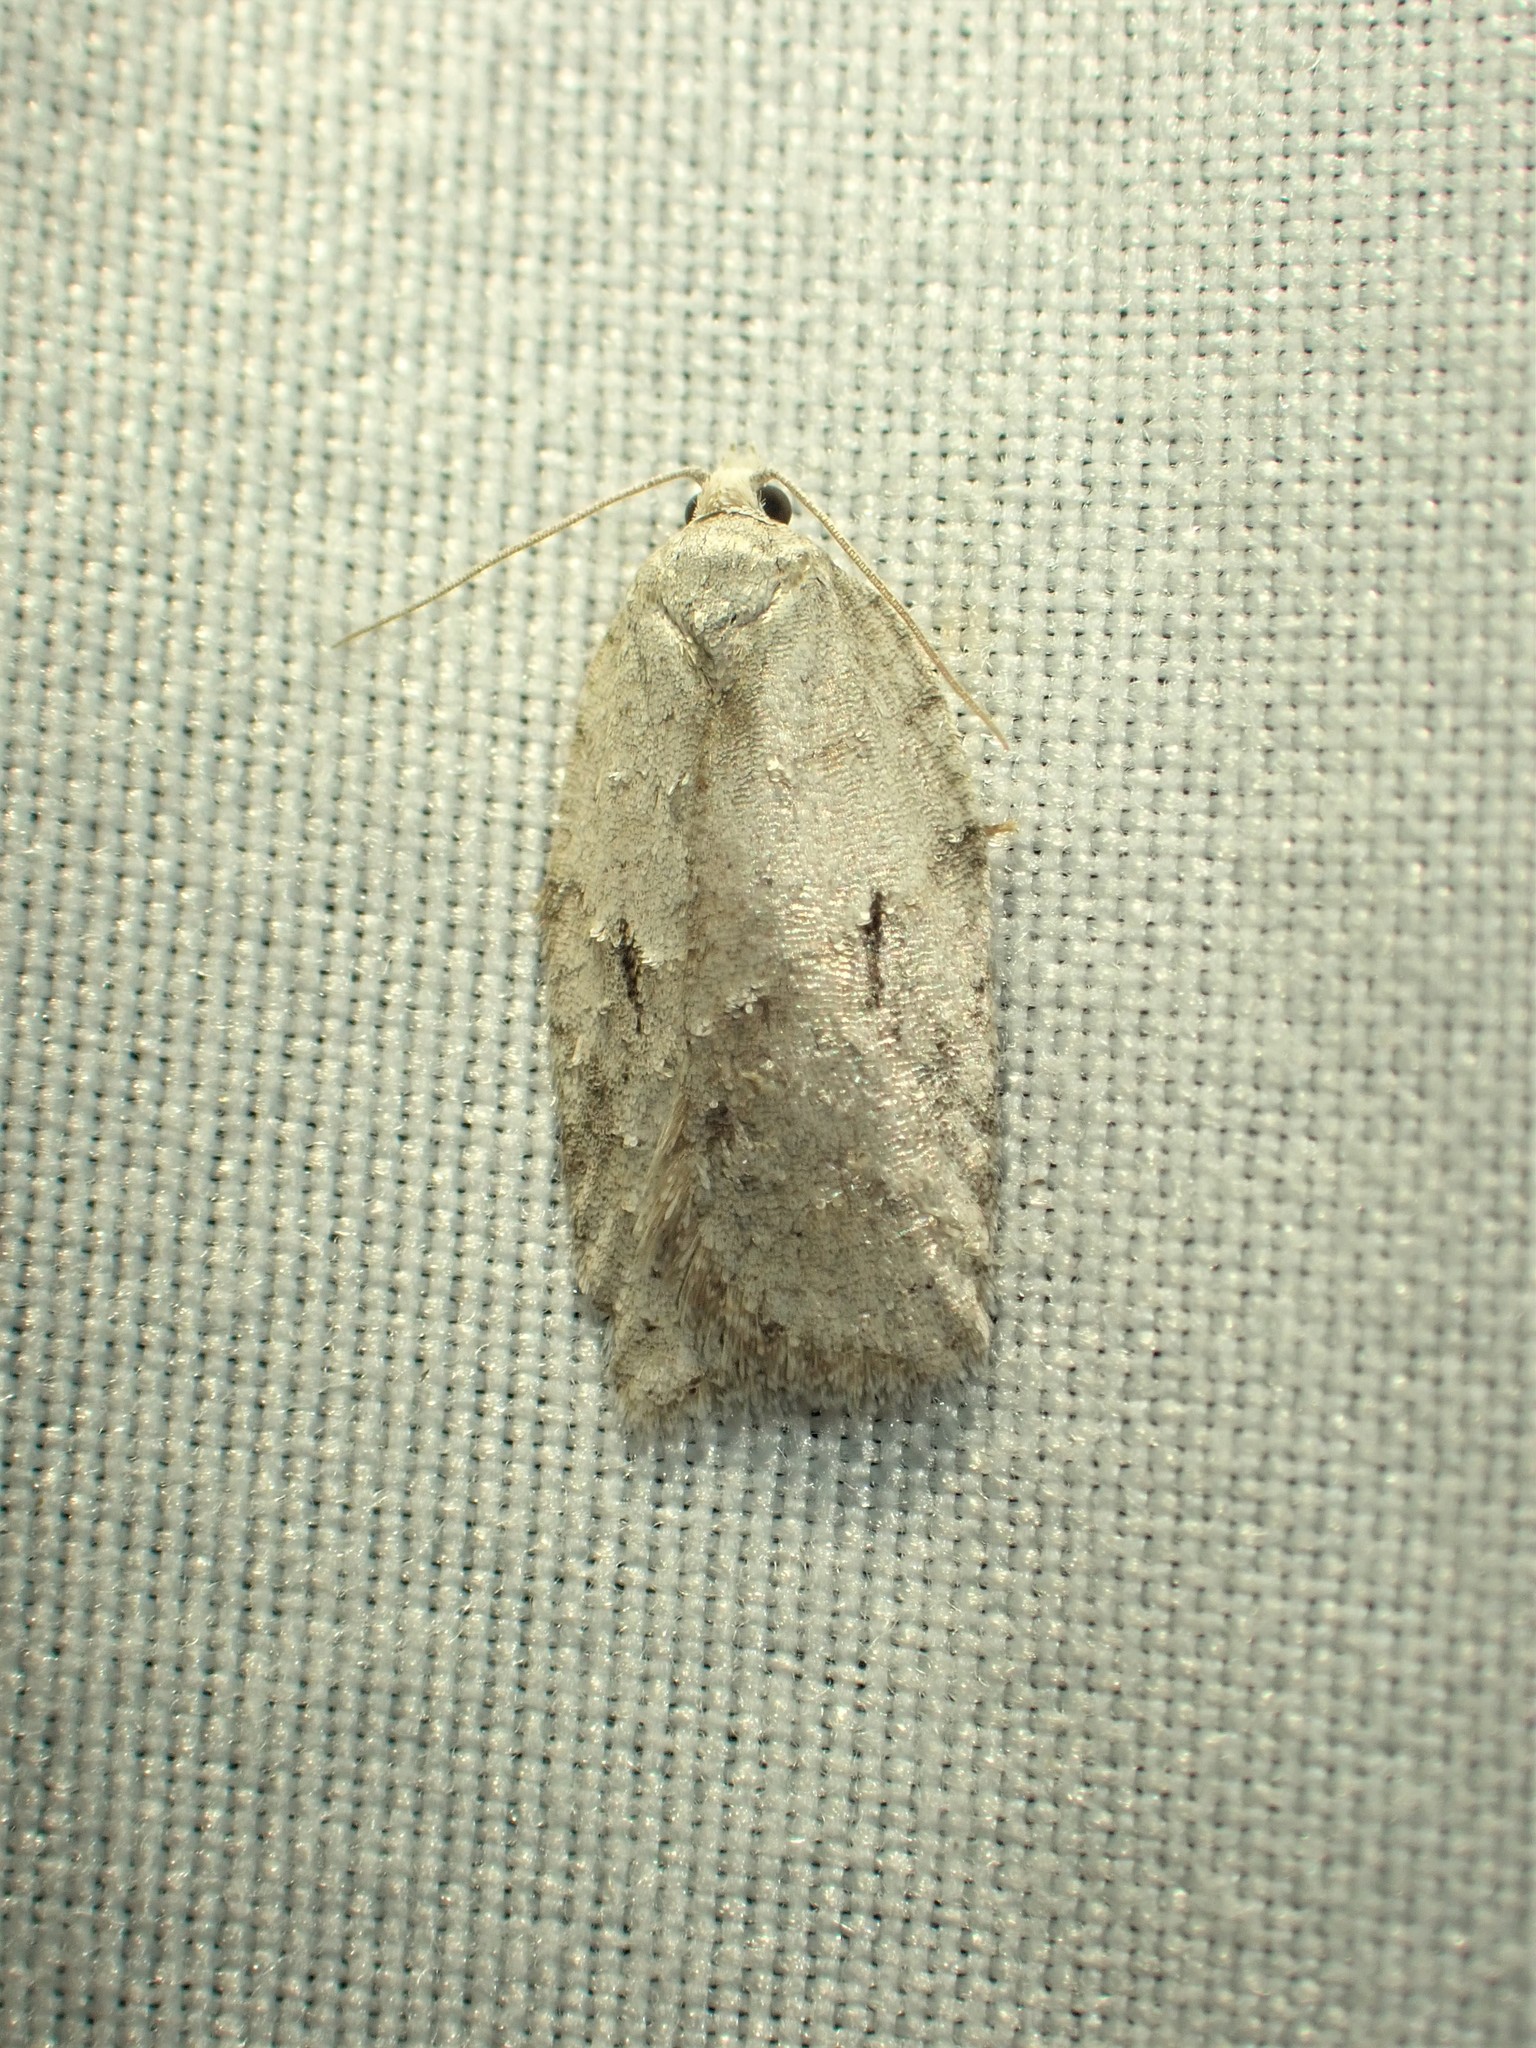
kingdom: Animalia
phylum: Arthropoda
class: Insecta
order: Lepidoptera
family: Tortricidae
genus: Acleris
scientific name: Acleris placidana
